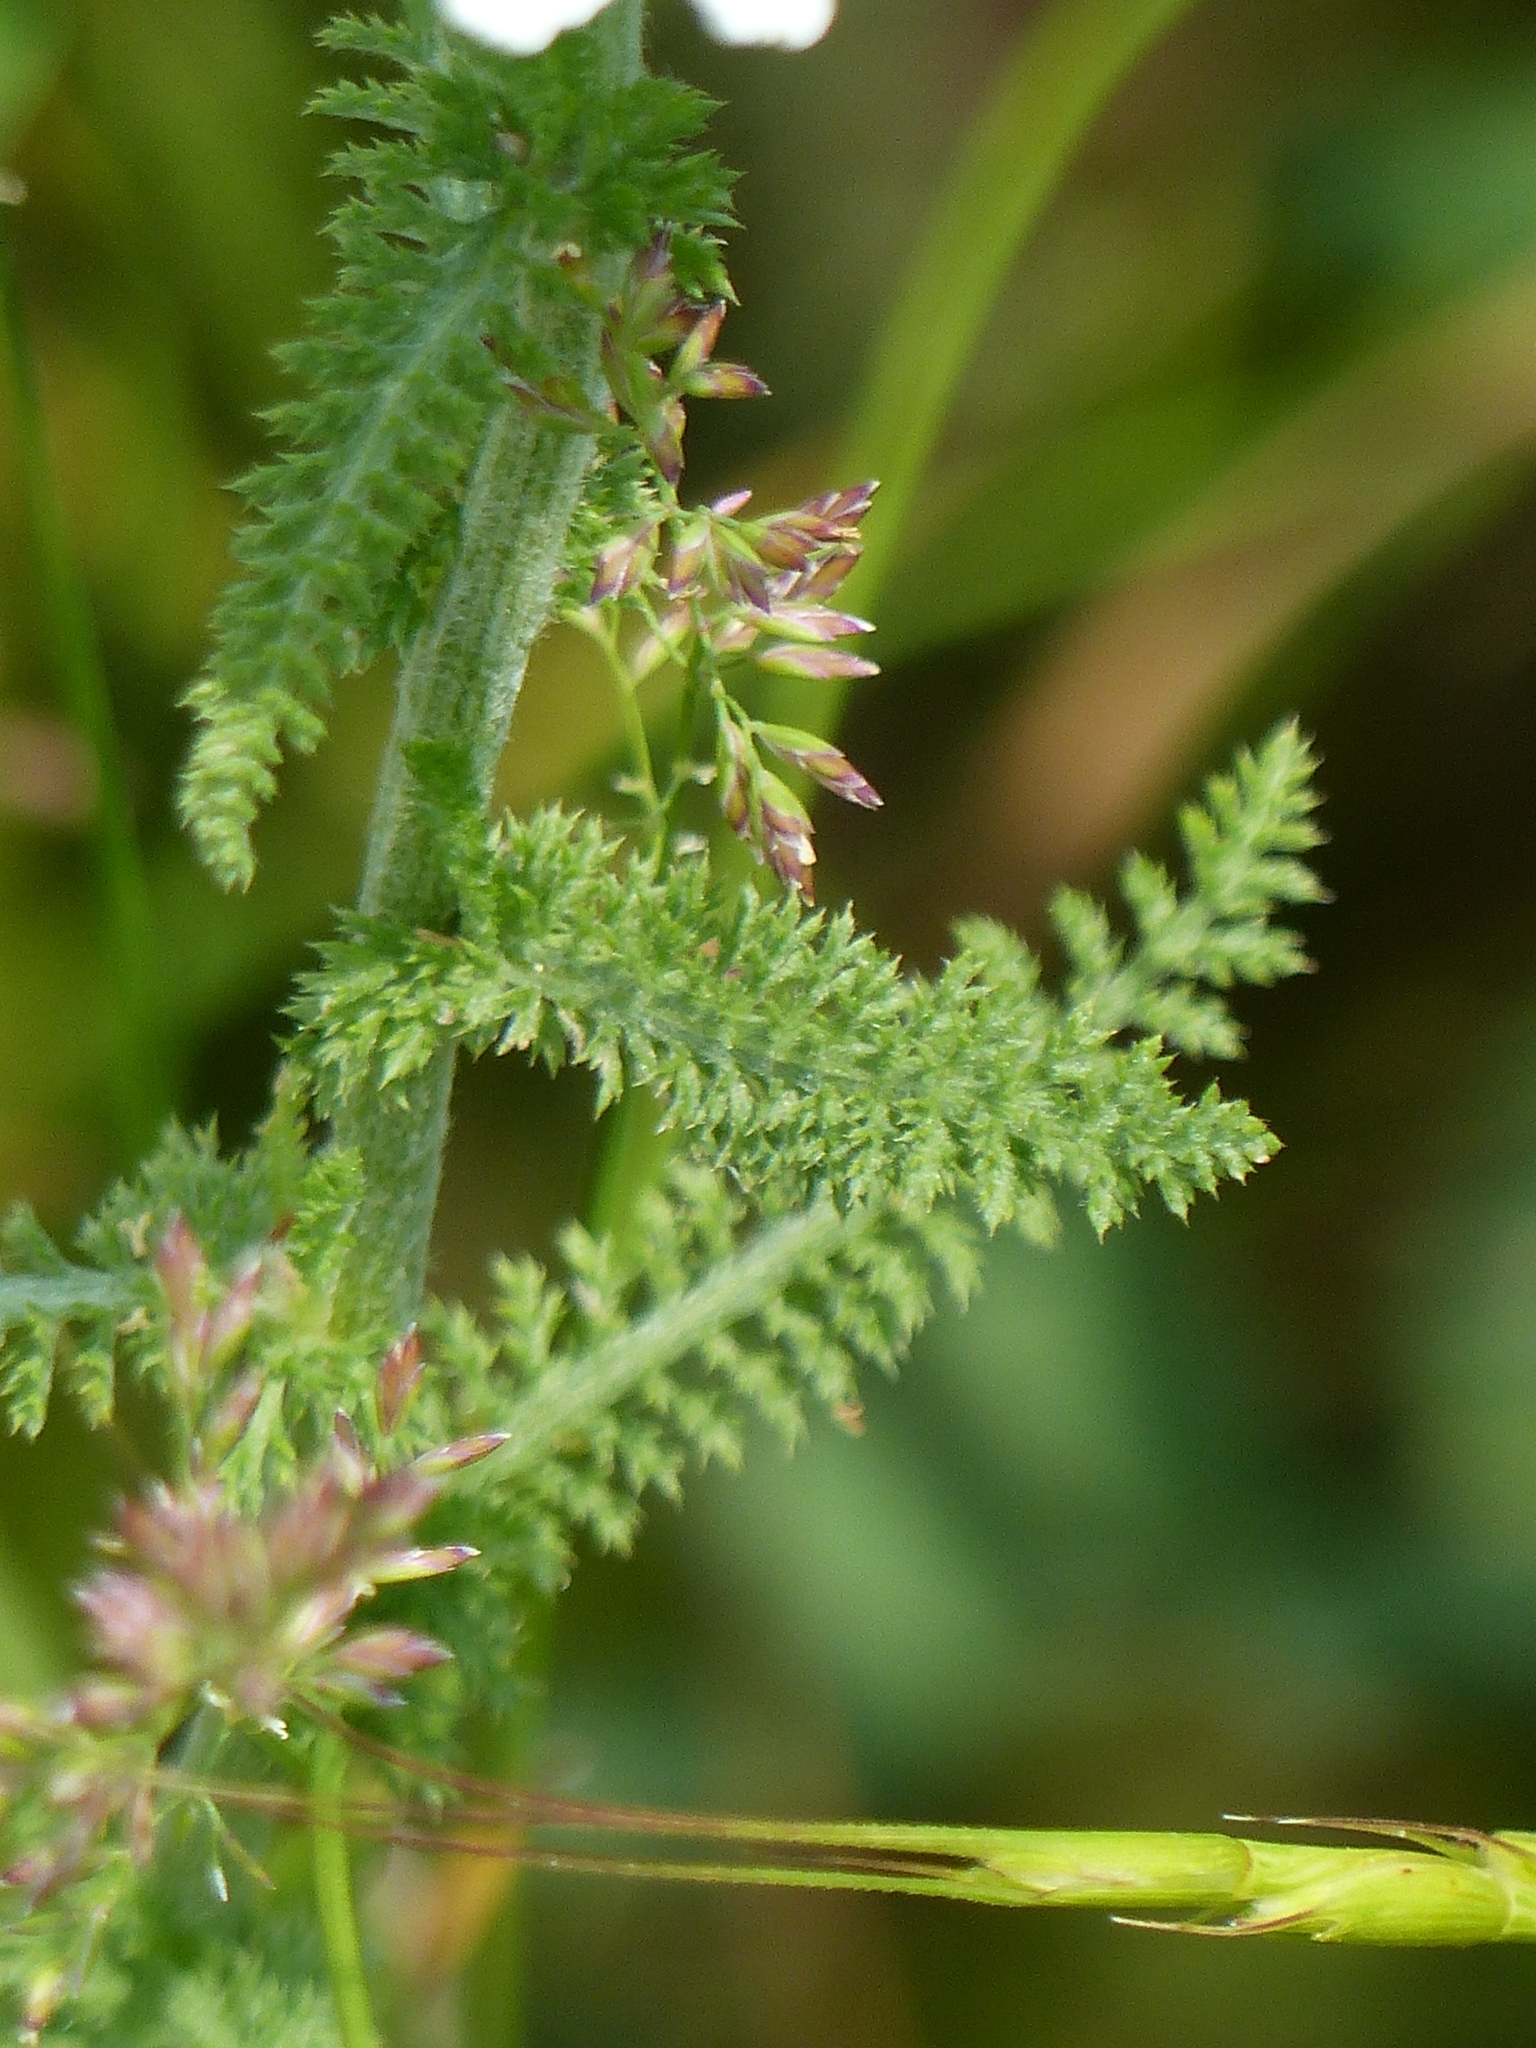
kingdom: Plantae
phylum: Tracheophyta
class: Magnoliopsida
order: Asterales
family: Asteraceae
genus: Achillea
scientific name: Achillea millefolium
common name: Yarrow
